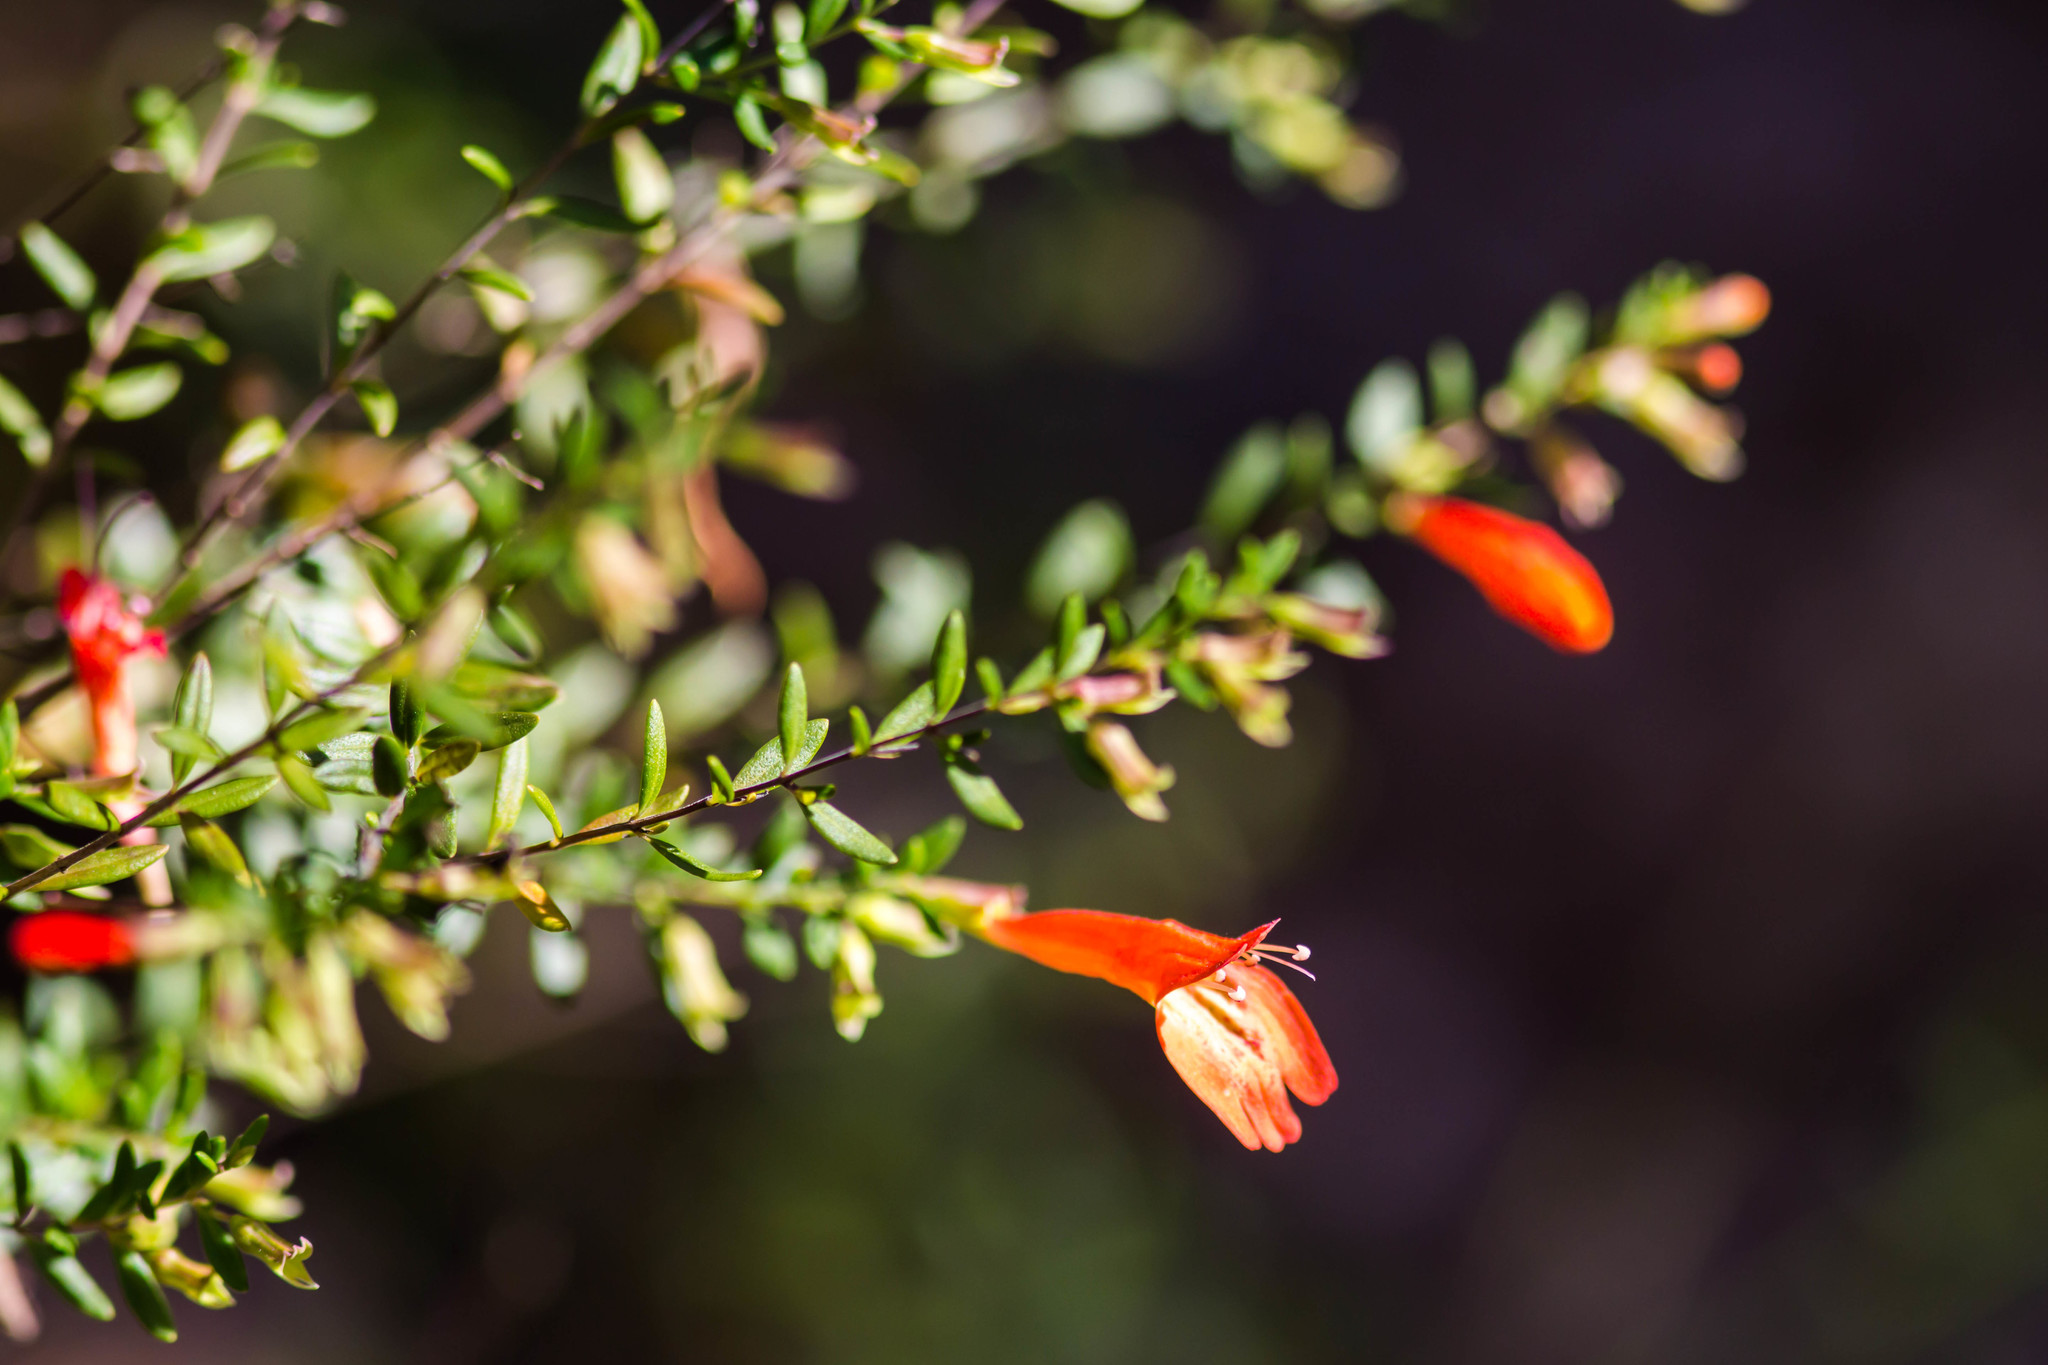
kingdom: Plantae
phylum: Tracheophyta
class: Magnoliopsida
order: Lamiales
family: Lamiaceae
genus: Clinopodium
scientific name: Clinopodium coccineum
